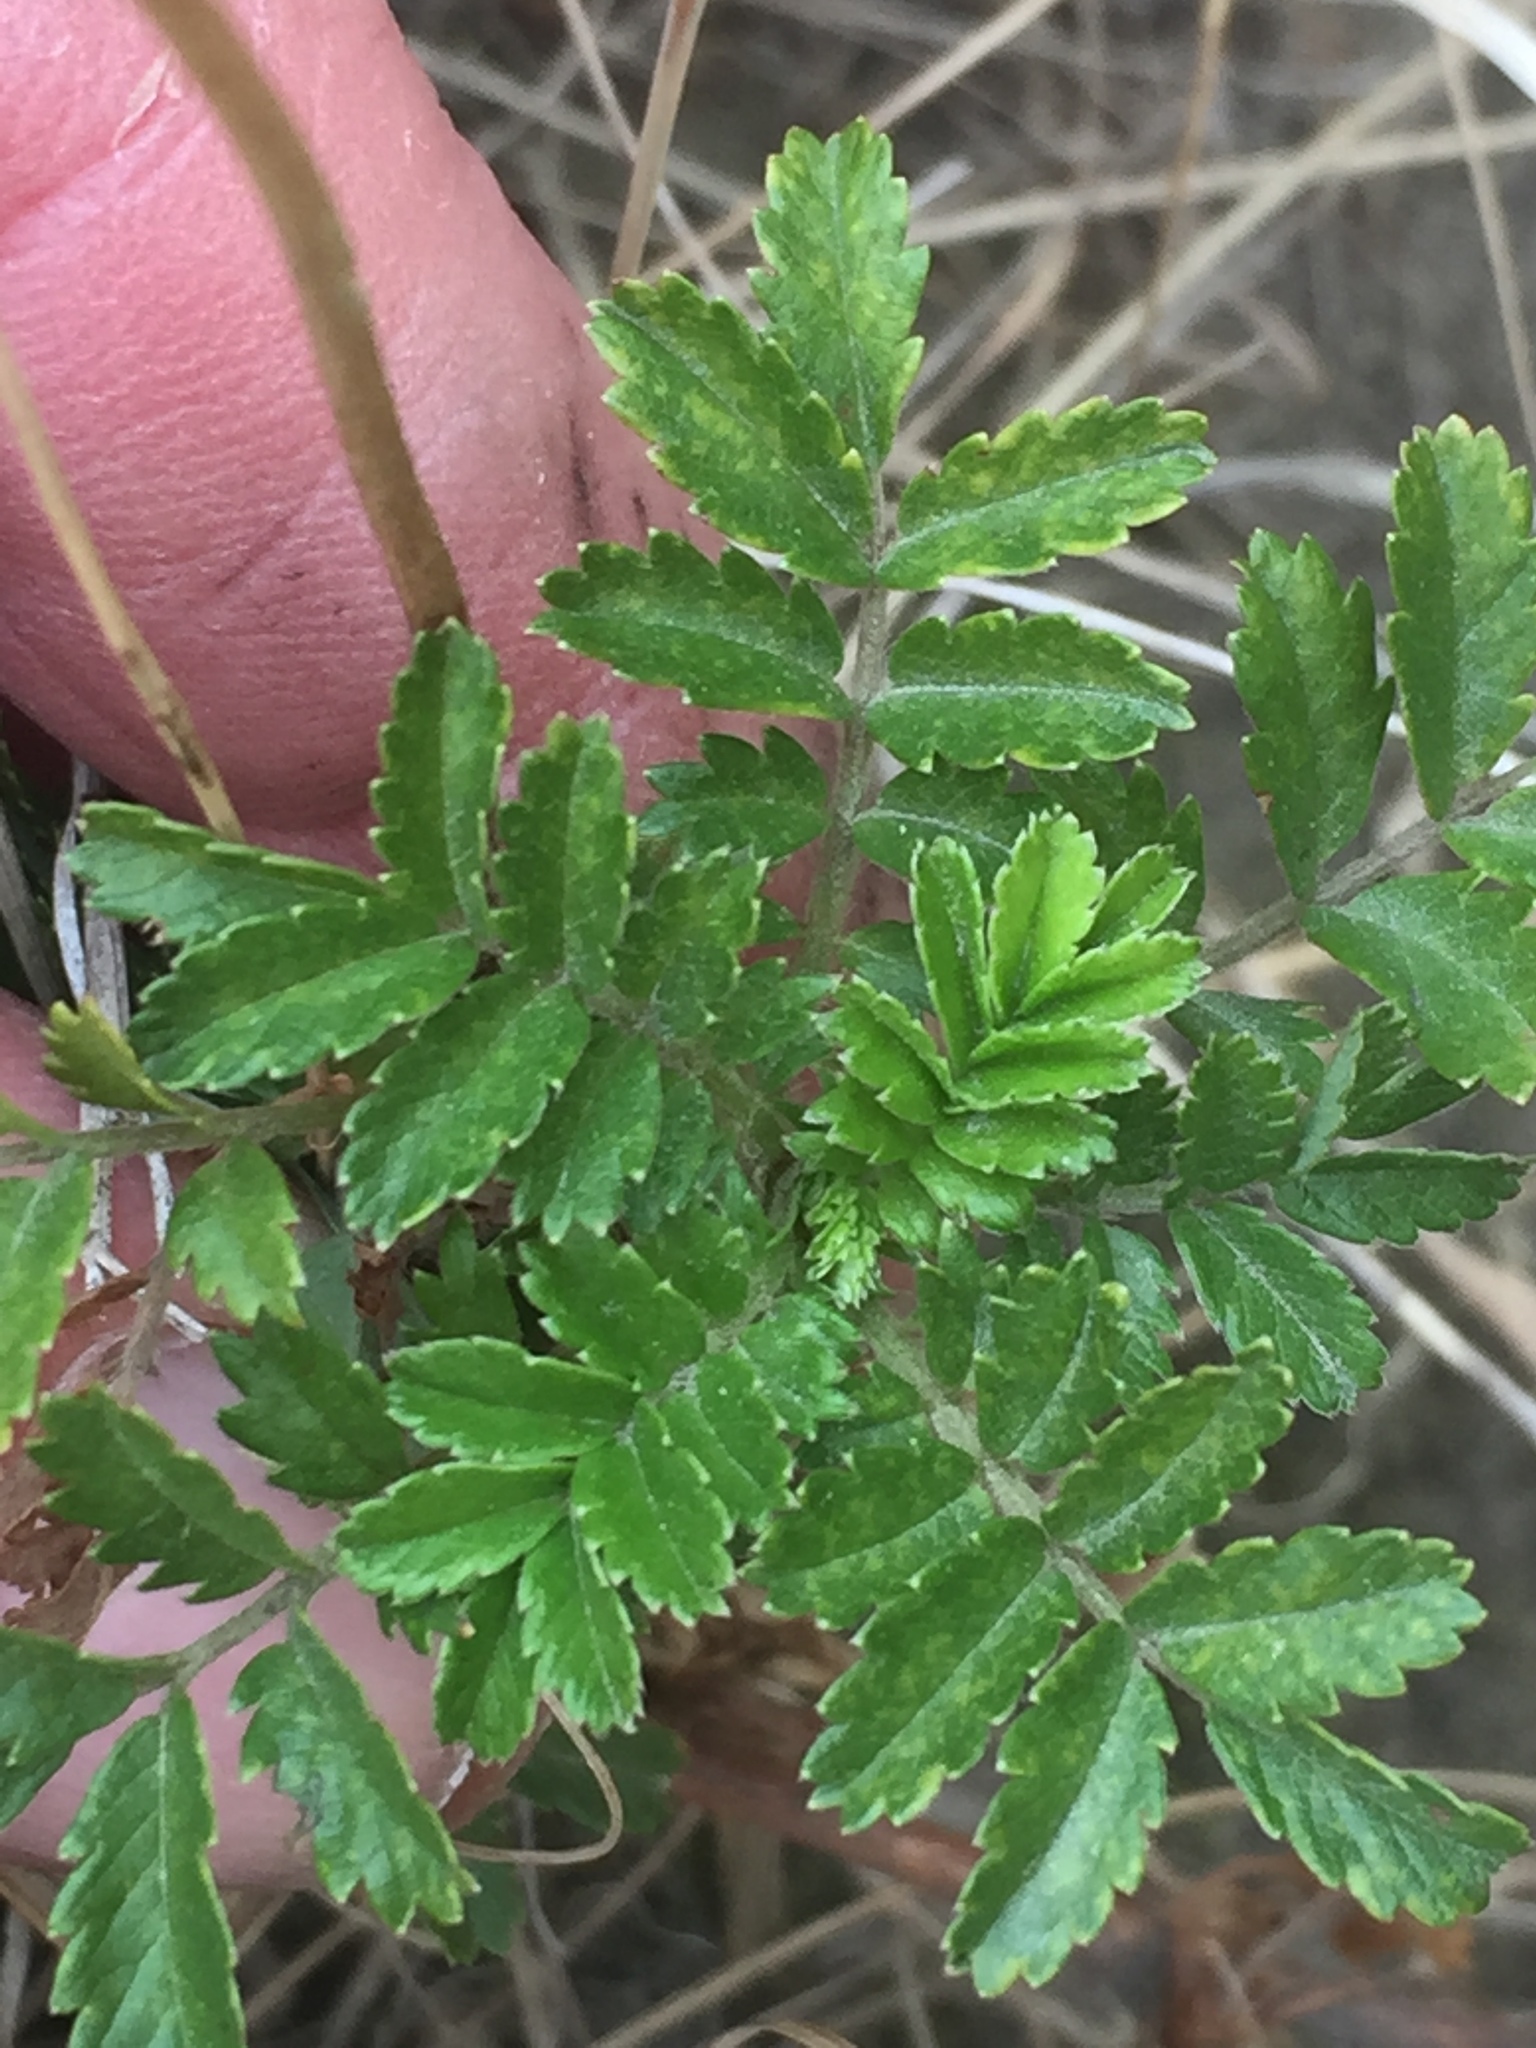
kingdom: Plantae
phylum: Tracheophyta
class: Magnoliopsida
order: Rosales
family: Rosaceae
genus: Acaena
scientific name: Acaena novae-zelandiae
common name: Pirri-pirri-bur
